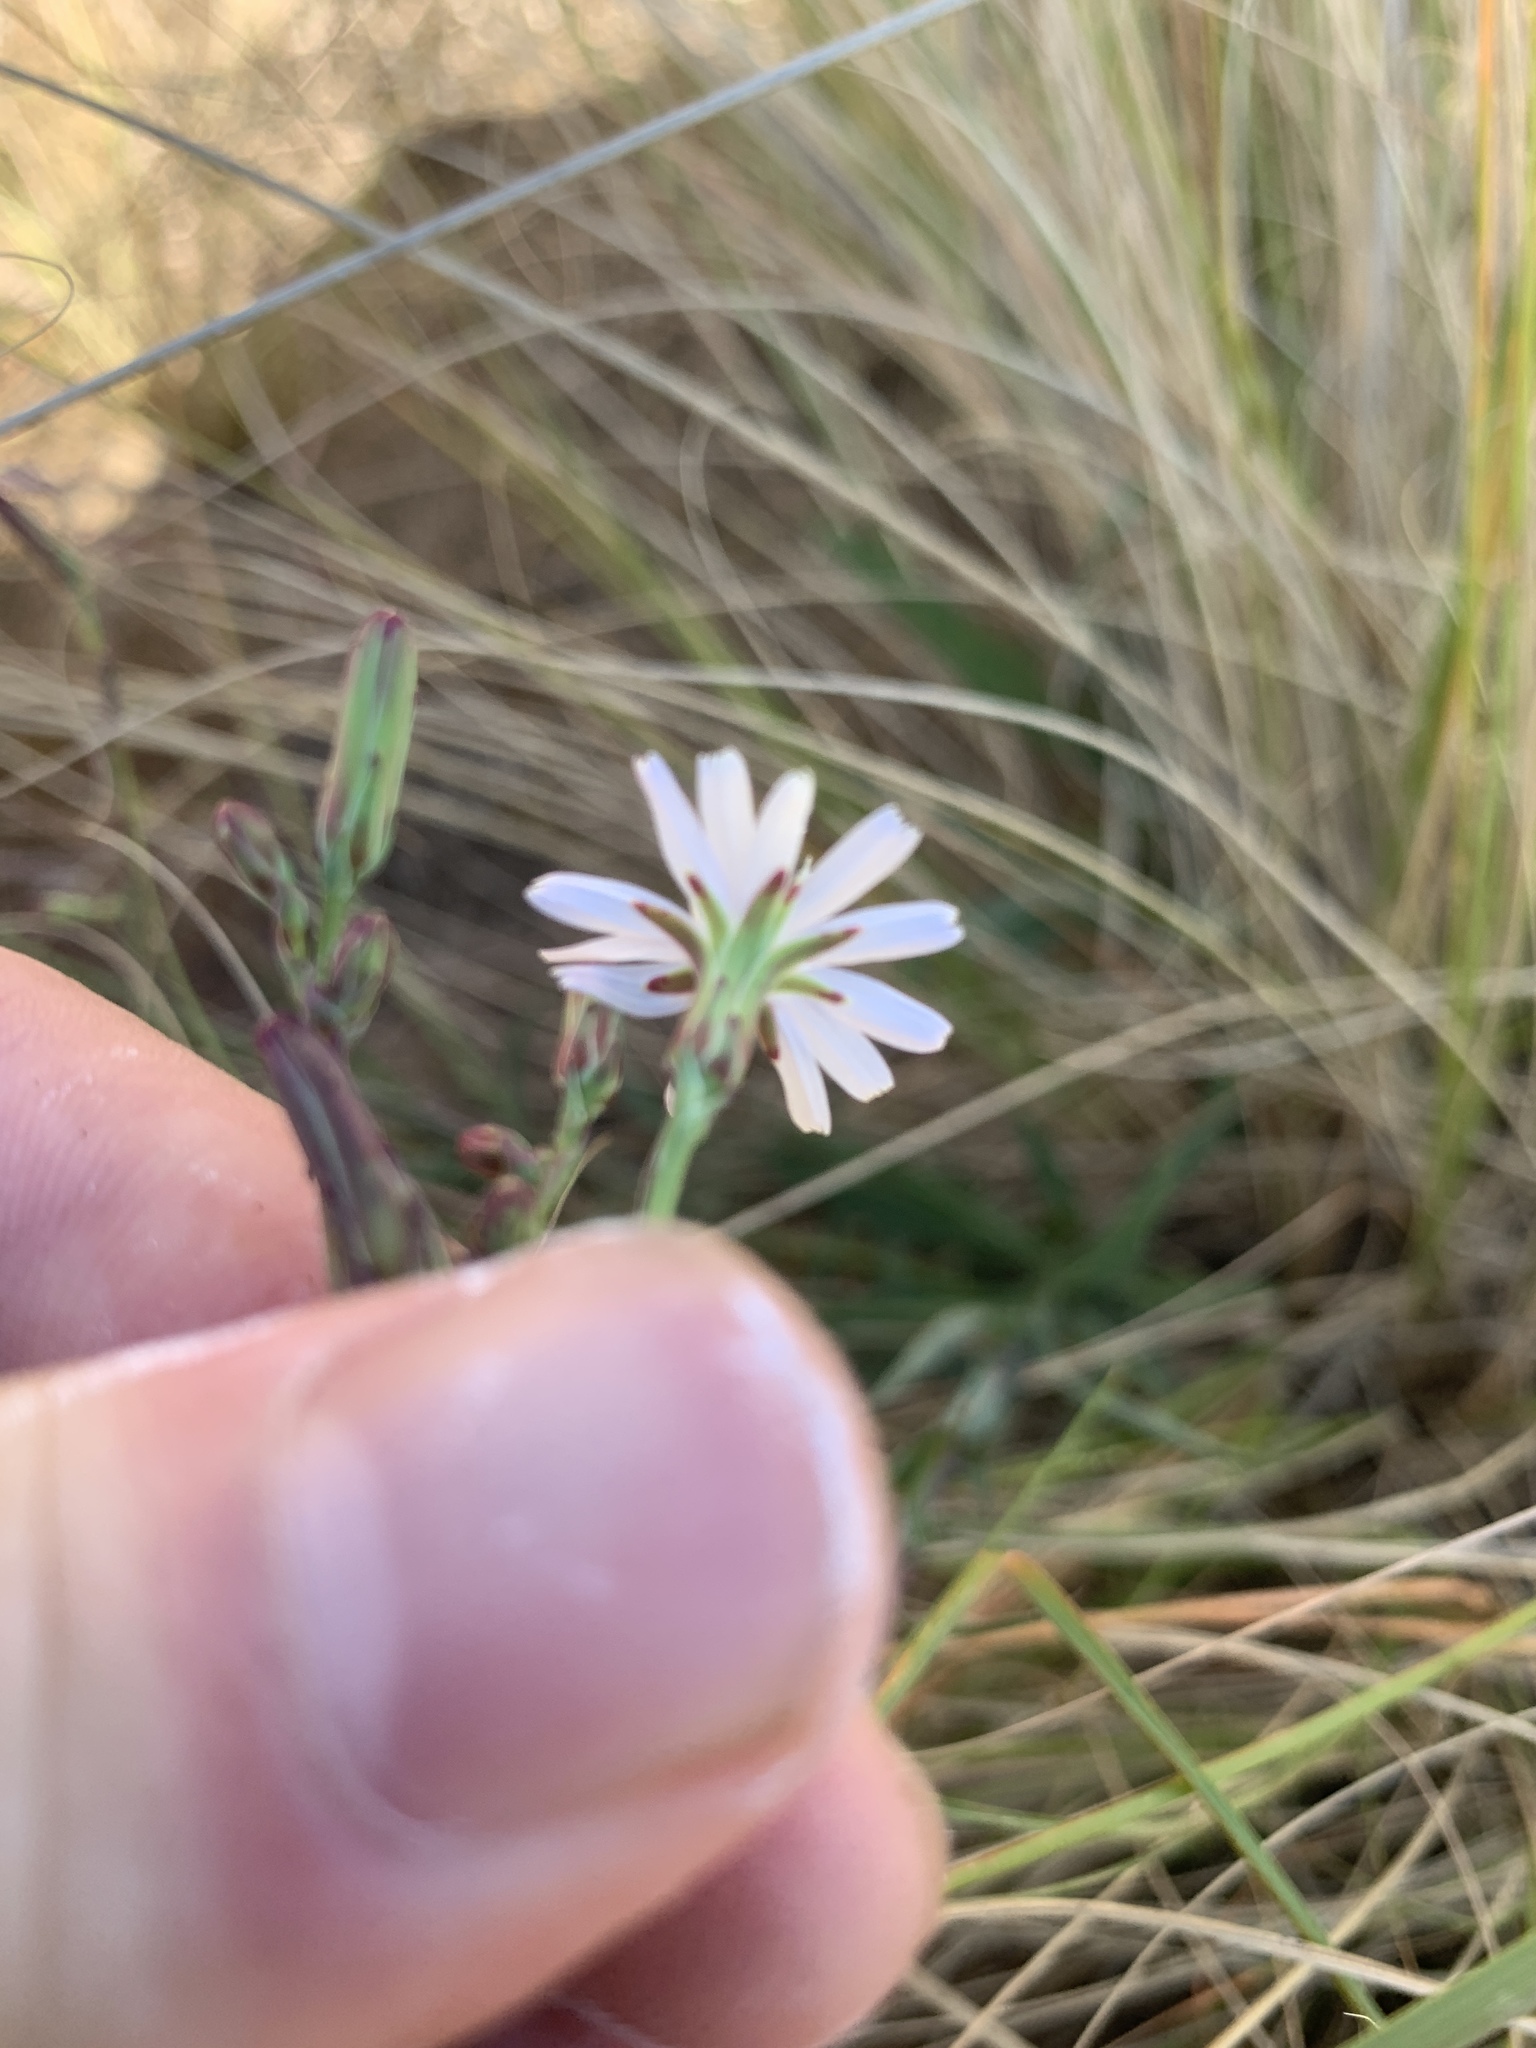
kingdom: Plantae
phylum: Tracheophyta
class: Magnoliopsida
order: Asterales
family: Asteraceae
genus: Lactuca
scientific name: Lactuca inermis
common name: Wild lettuce
